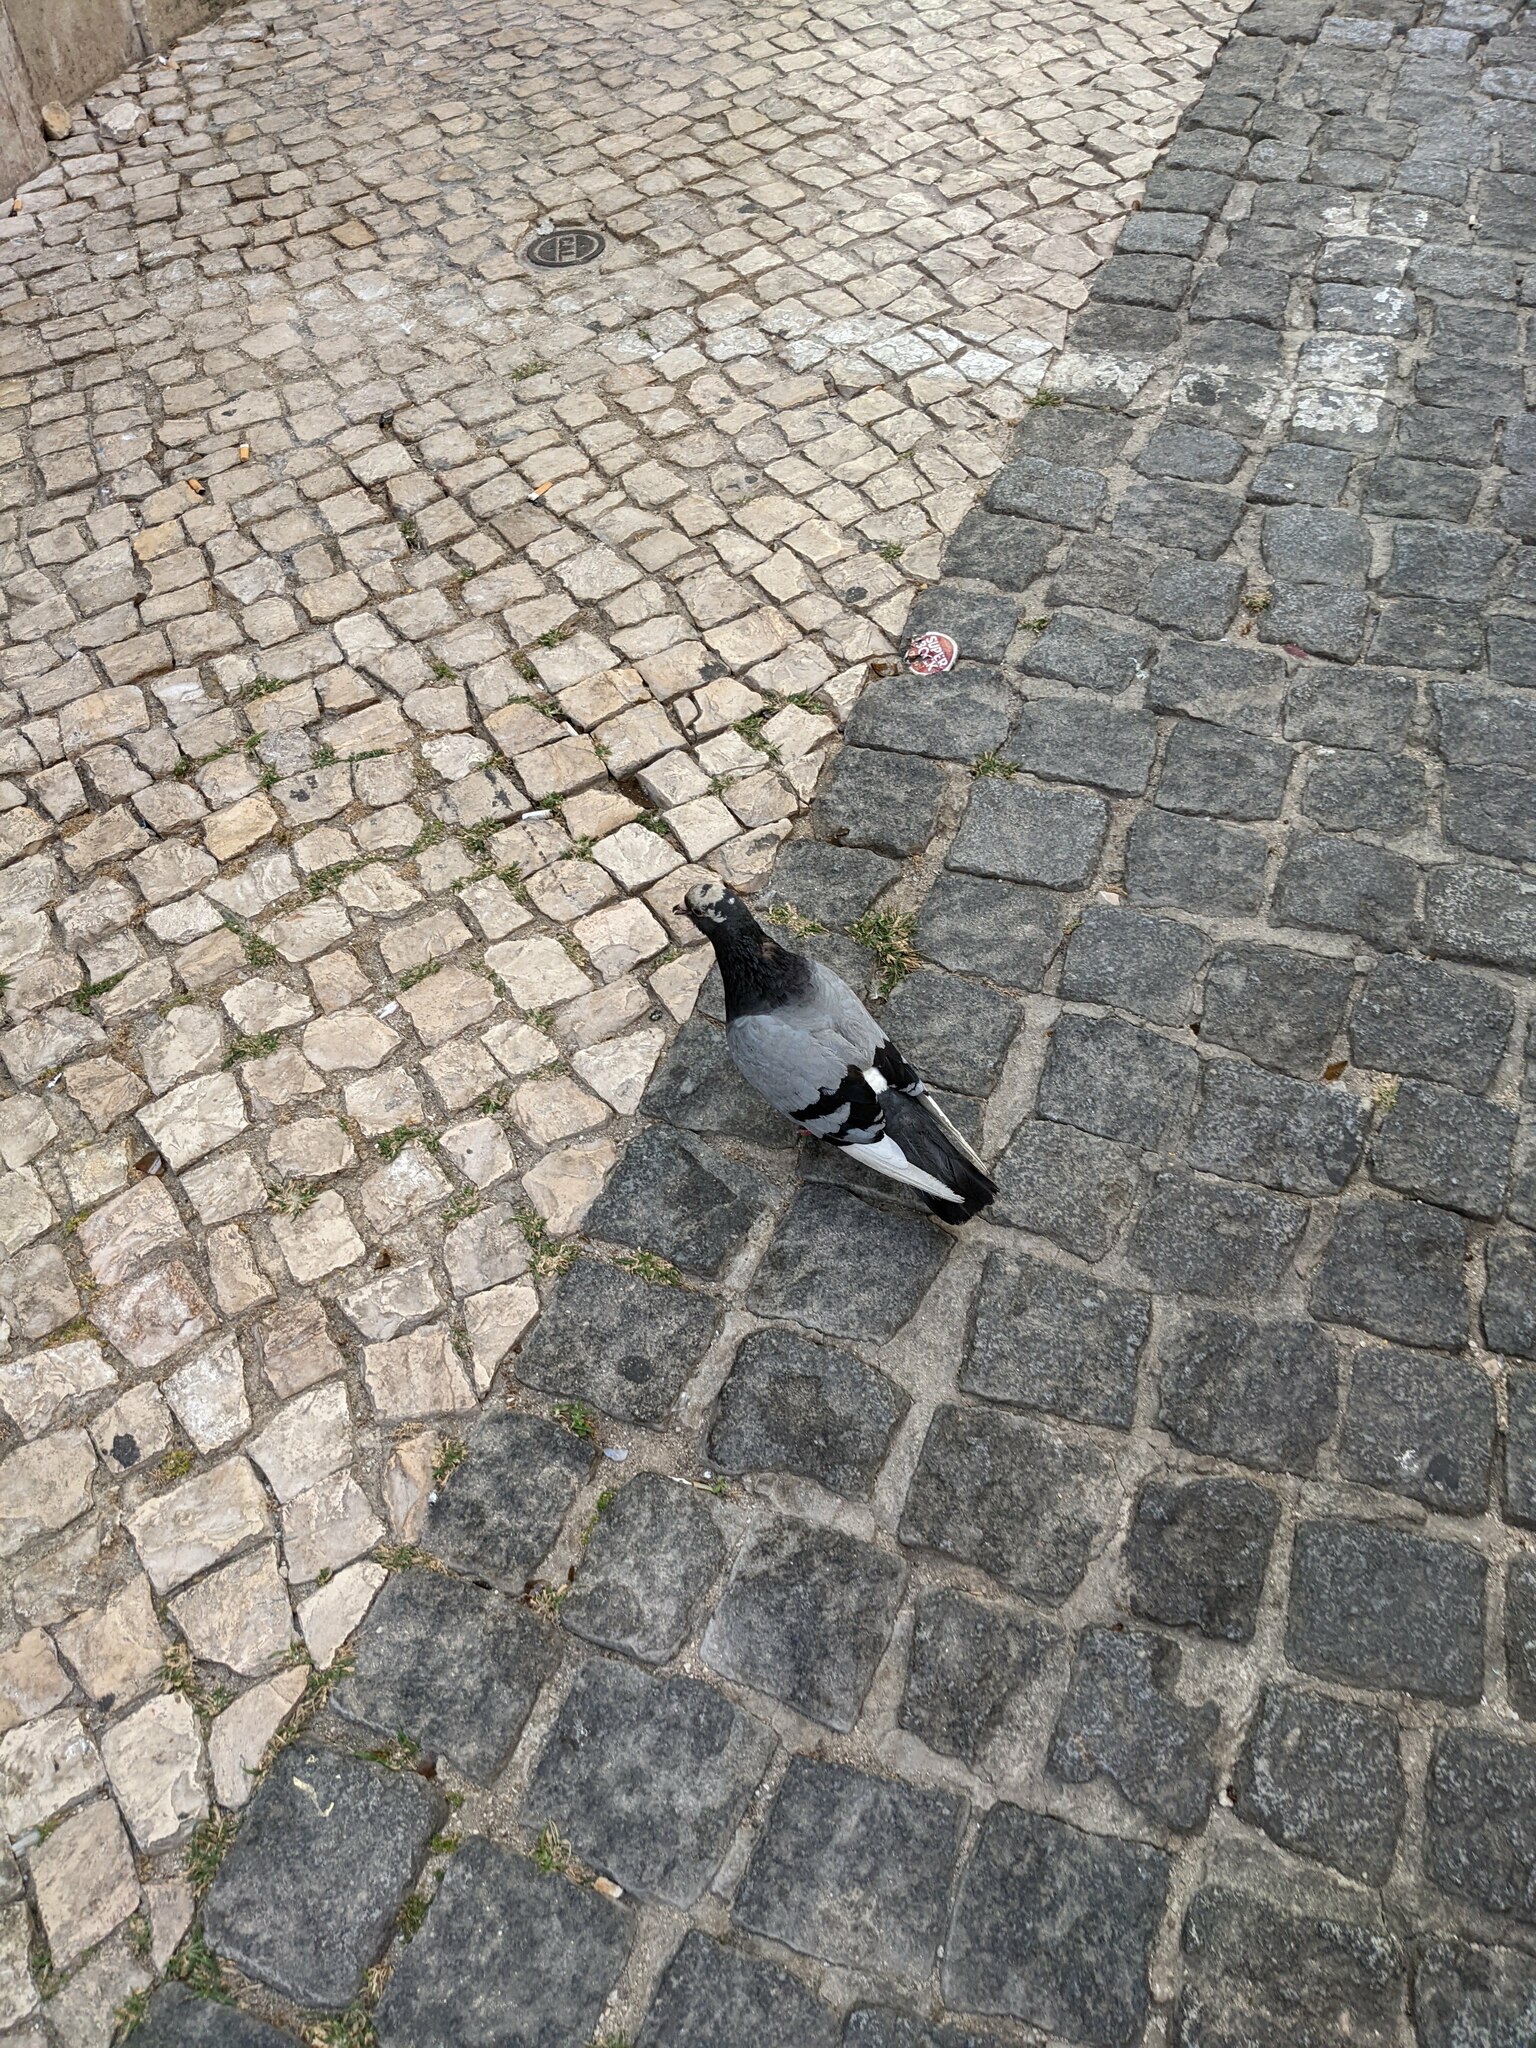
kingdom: Animalia
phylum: Chordata
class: Aves
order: Columbiformes
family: Columbidae
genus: Columba
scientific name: Columba livia
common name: Rock pigeon
